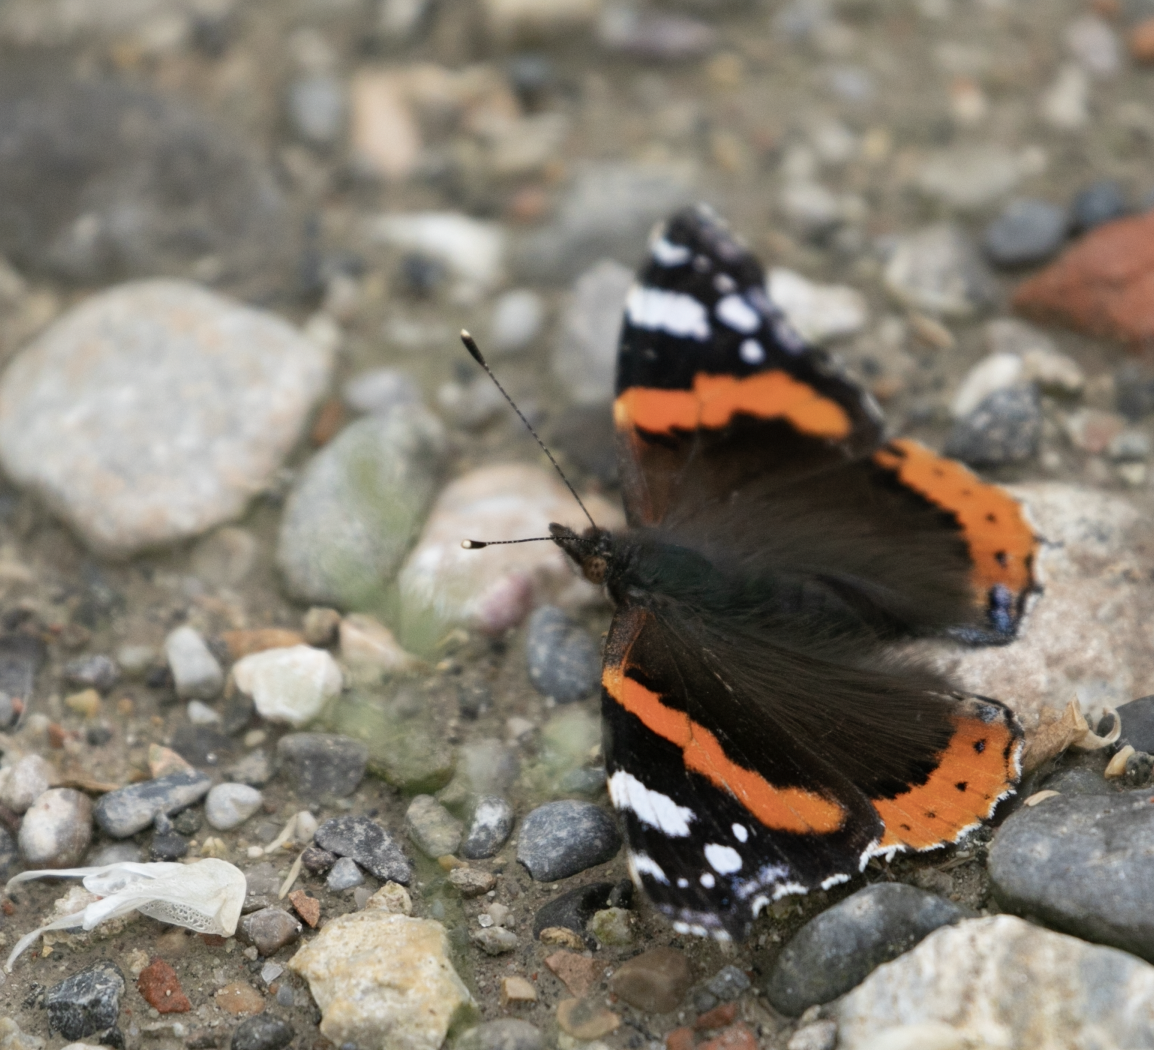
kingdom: Animalia
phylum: Arthropoda
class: Insecta
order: Lepidoptera
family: Nymphalidae
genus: Vanessa
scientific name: Vanessa atalanta
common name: Red admiral
